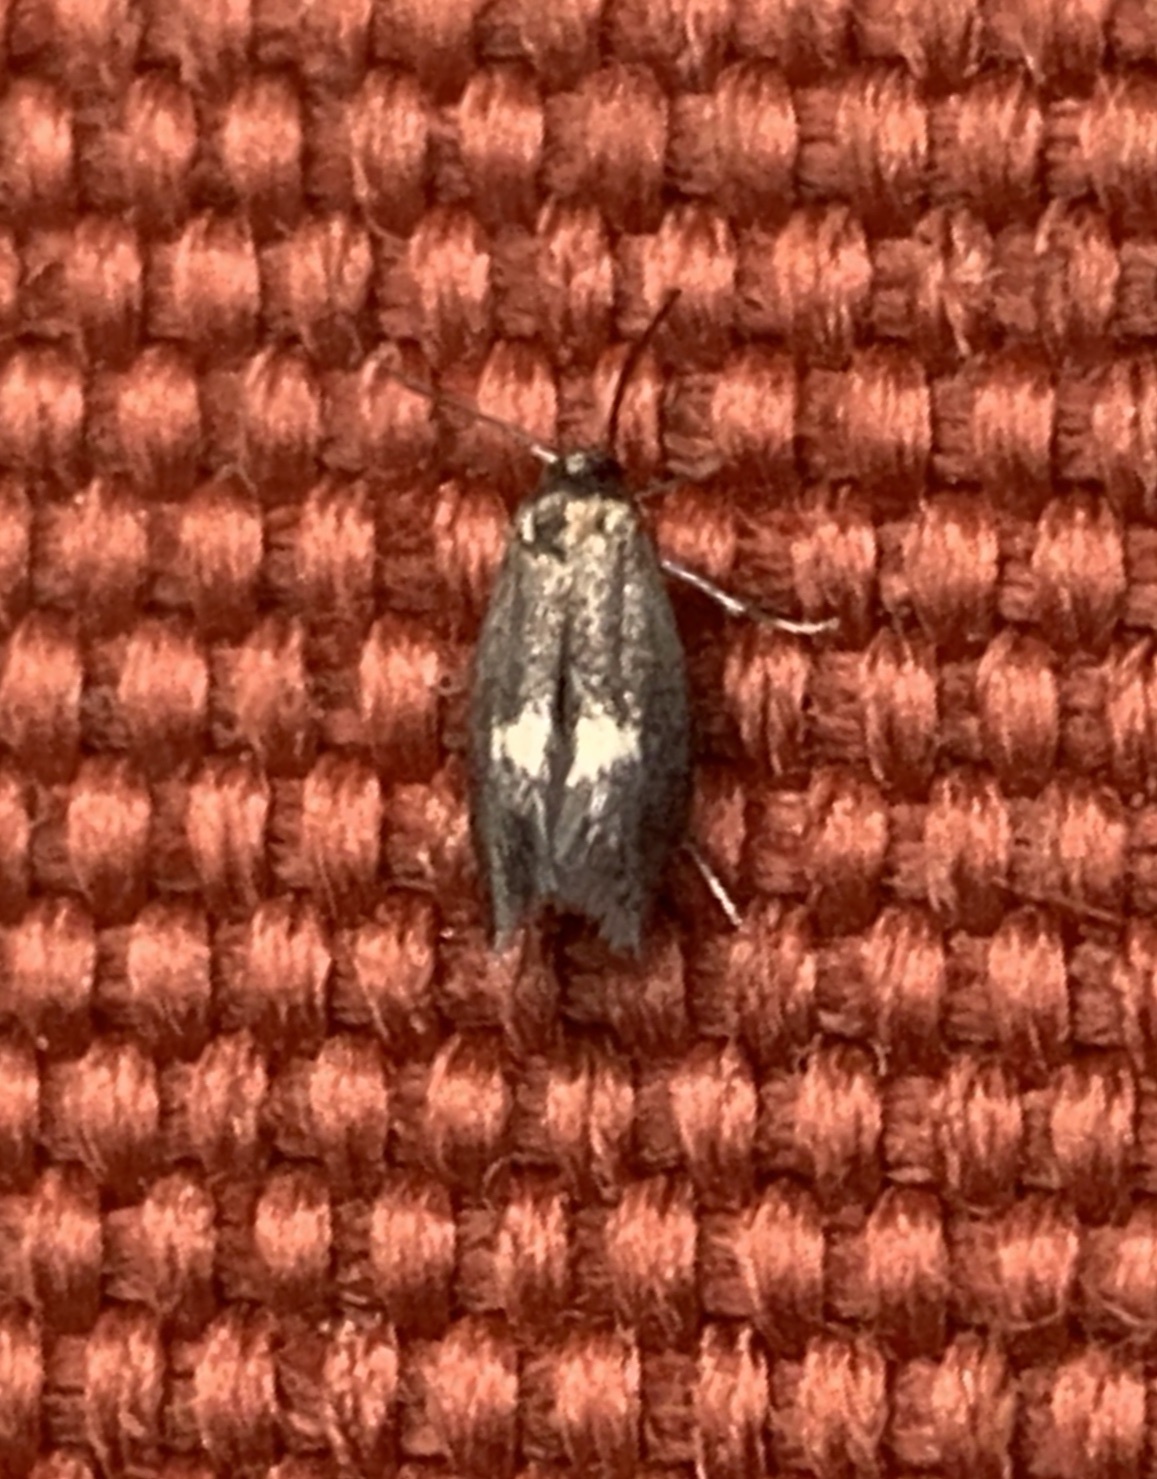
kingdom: Animalia
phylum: Arthropoda
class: Insecta
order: Lepidoptera
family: Elachistidae
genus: Perittia
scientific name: Perittia herrichiella
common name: Moth
